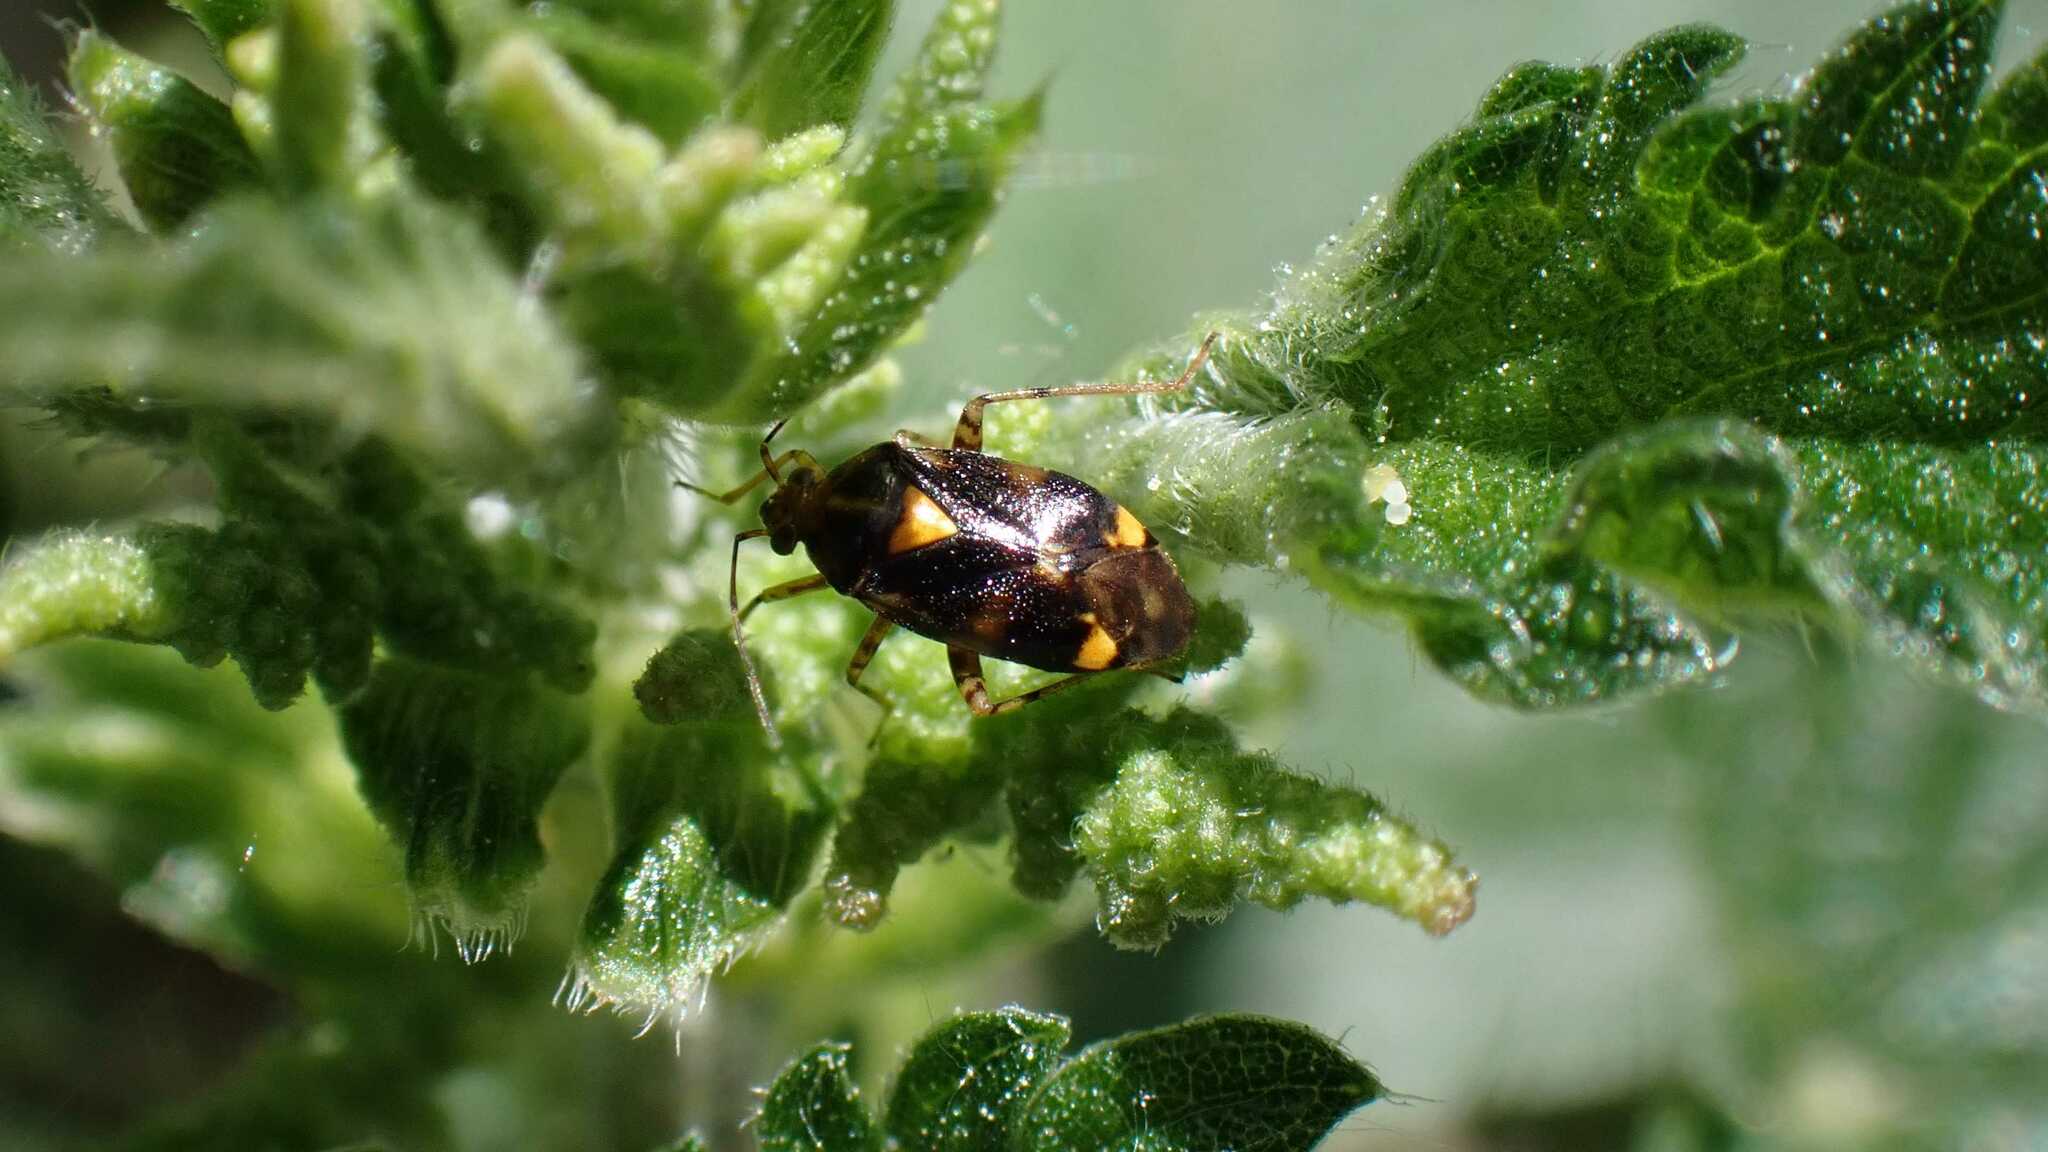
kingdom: Animalia
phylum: Arthropoda
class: Insecta
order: Hemiptera
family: Miridae
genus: Liocoris
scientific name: Liocoris tripustulatus
